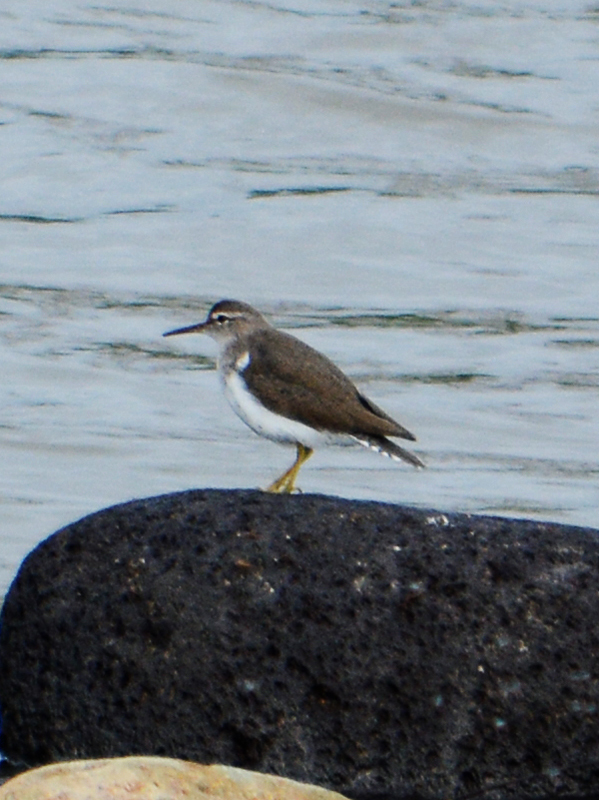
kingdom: Animalia
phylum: Chordata
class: Aves
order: Charadriiformes
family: Scolopacidae
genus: Actitis
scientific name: Actitis macularius
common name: Spotted sandpiper
